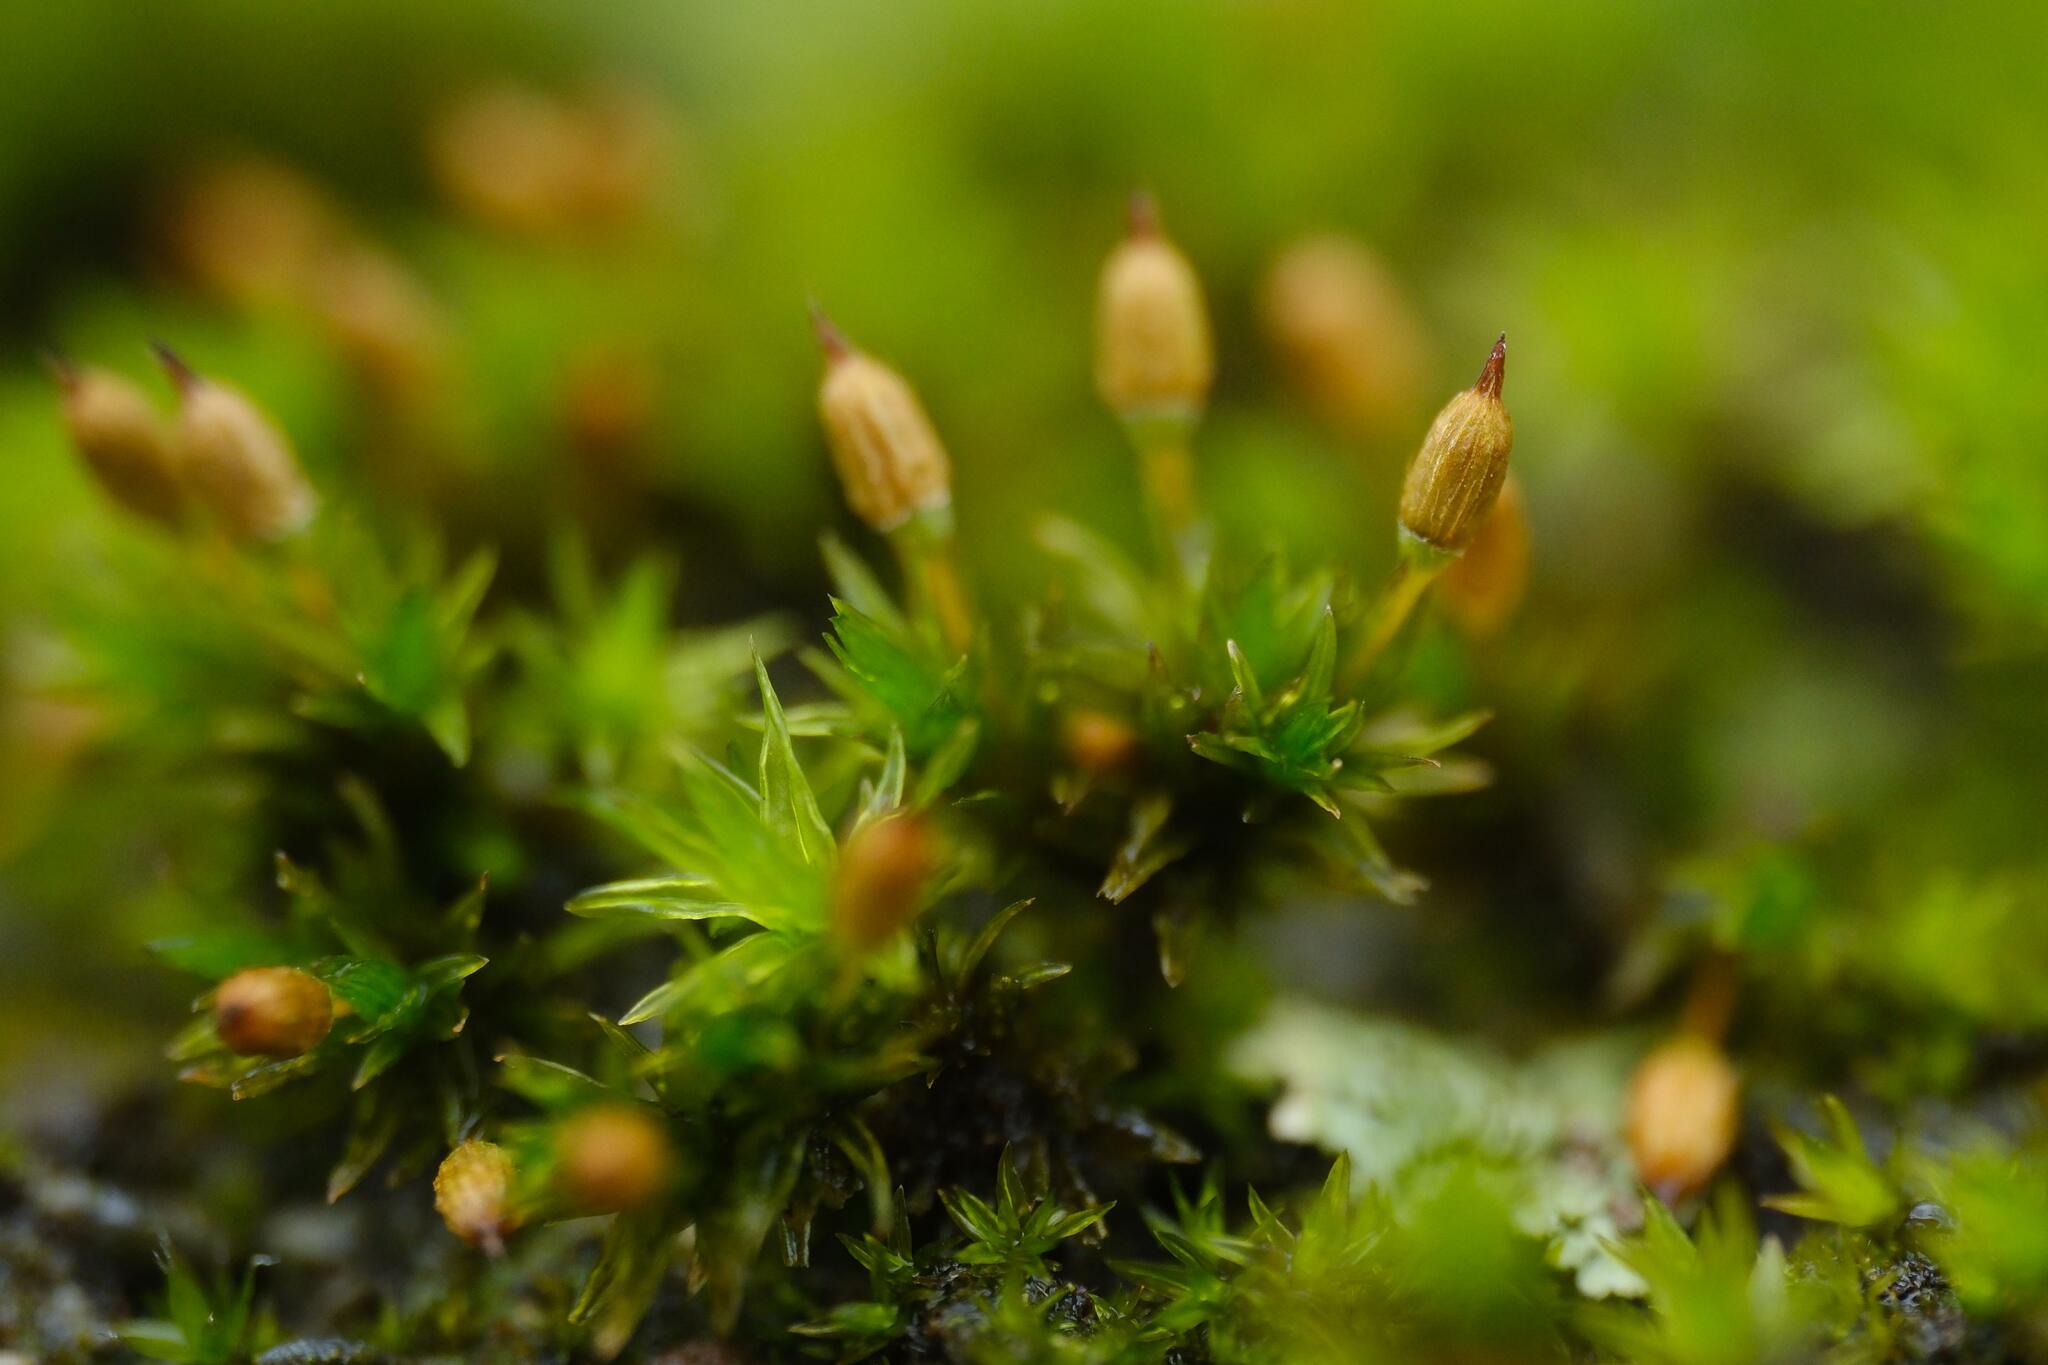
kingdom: Plantae
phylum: Bryophyta
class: Bryopsida
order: Orthotrichales
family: Orthotrichaceae
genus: Orthotrichum
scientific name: Orthotrichum anomalum
